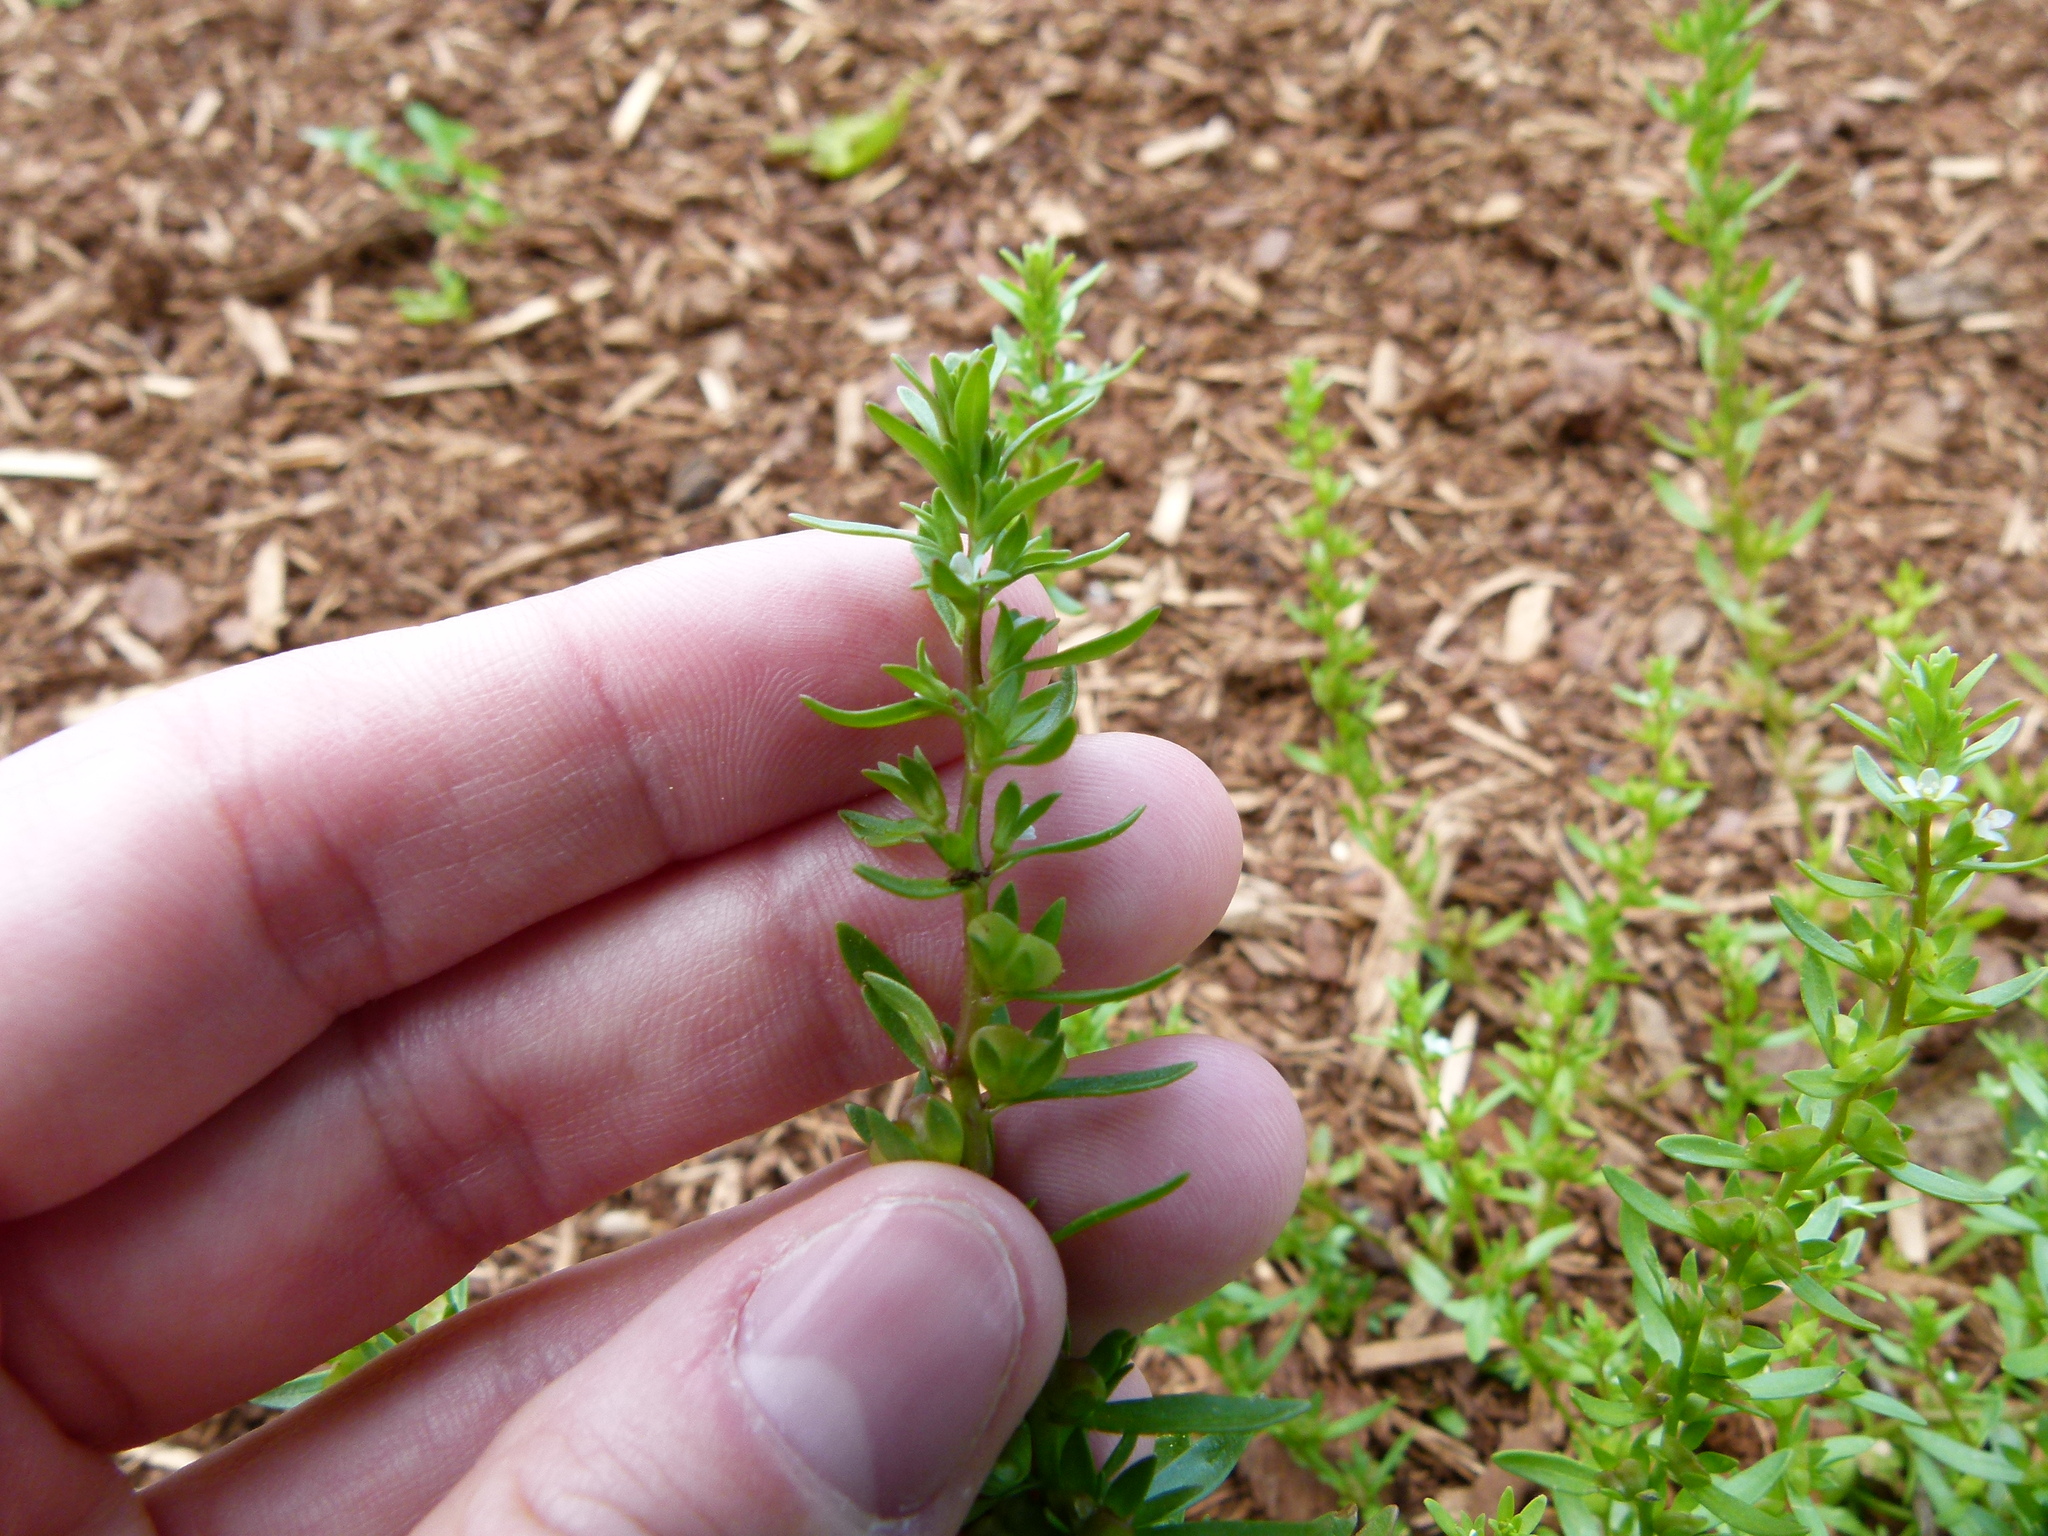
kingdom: Plantae
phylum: Tracheophyta
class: Magnoliopsida
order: Lamiales
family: Plantaginaceae
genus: Veronica
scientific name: Veronica peregrina
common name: Neckweed
